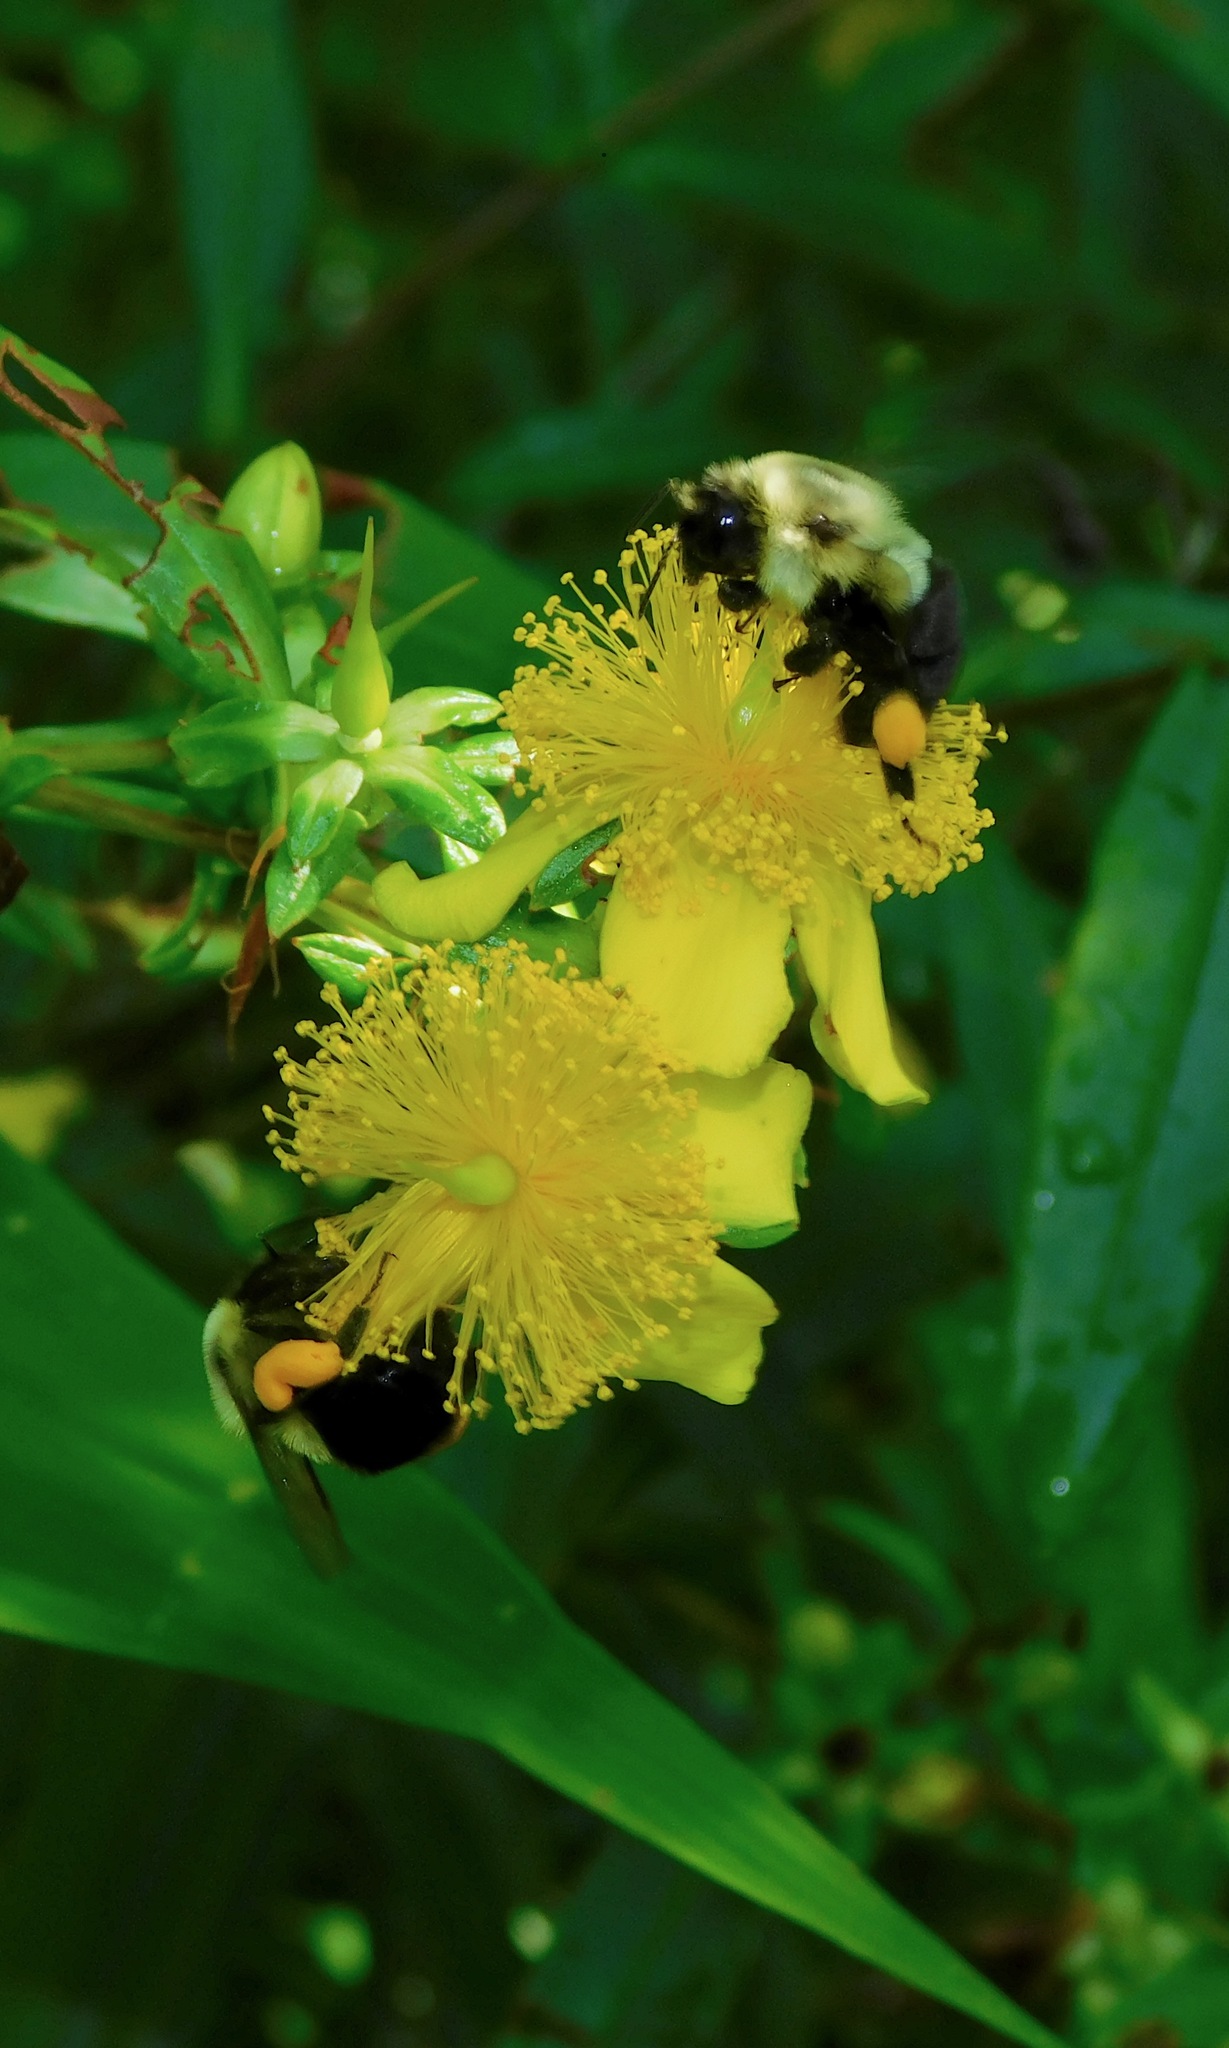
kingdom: Animalia
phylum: Arthropoda
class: Insecta
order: Hymenoptera
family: Apidae
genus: Bombus
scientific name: Bombus impatiens
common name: Common eastern bumble bee
